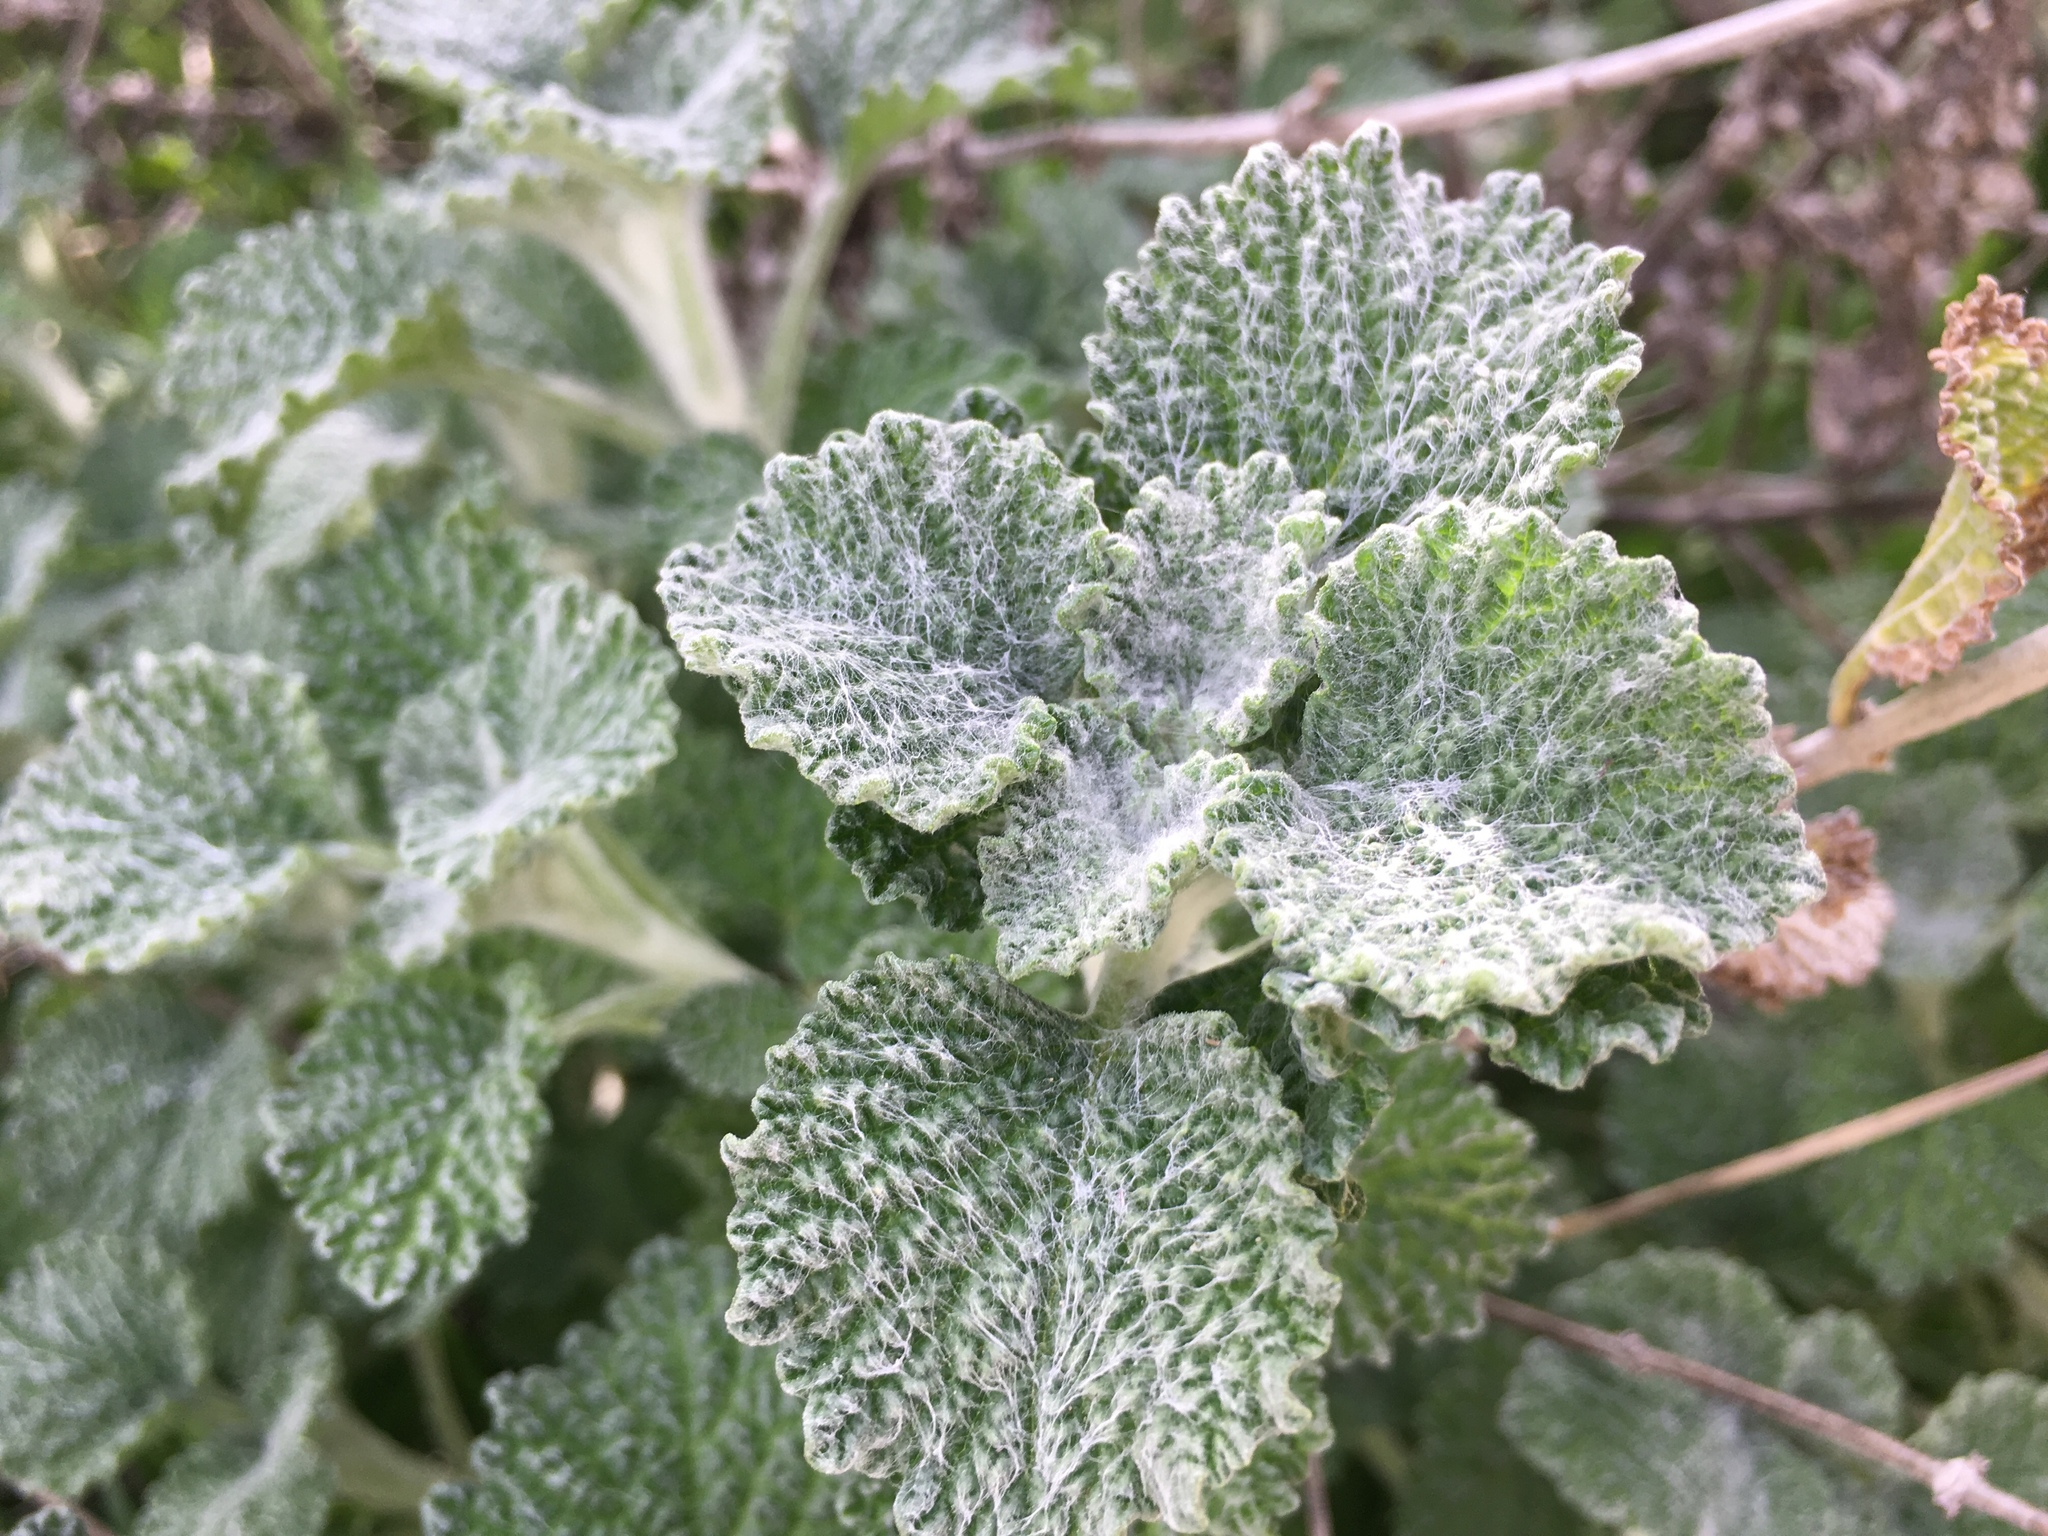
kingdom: Plantae
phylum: Tracheophyta
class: Magnoliopsida
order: Lamiales
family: Lamiaceae
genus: Marrubium
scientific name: Marrubium vulgare
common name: Horehound
